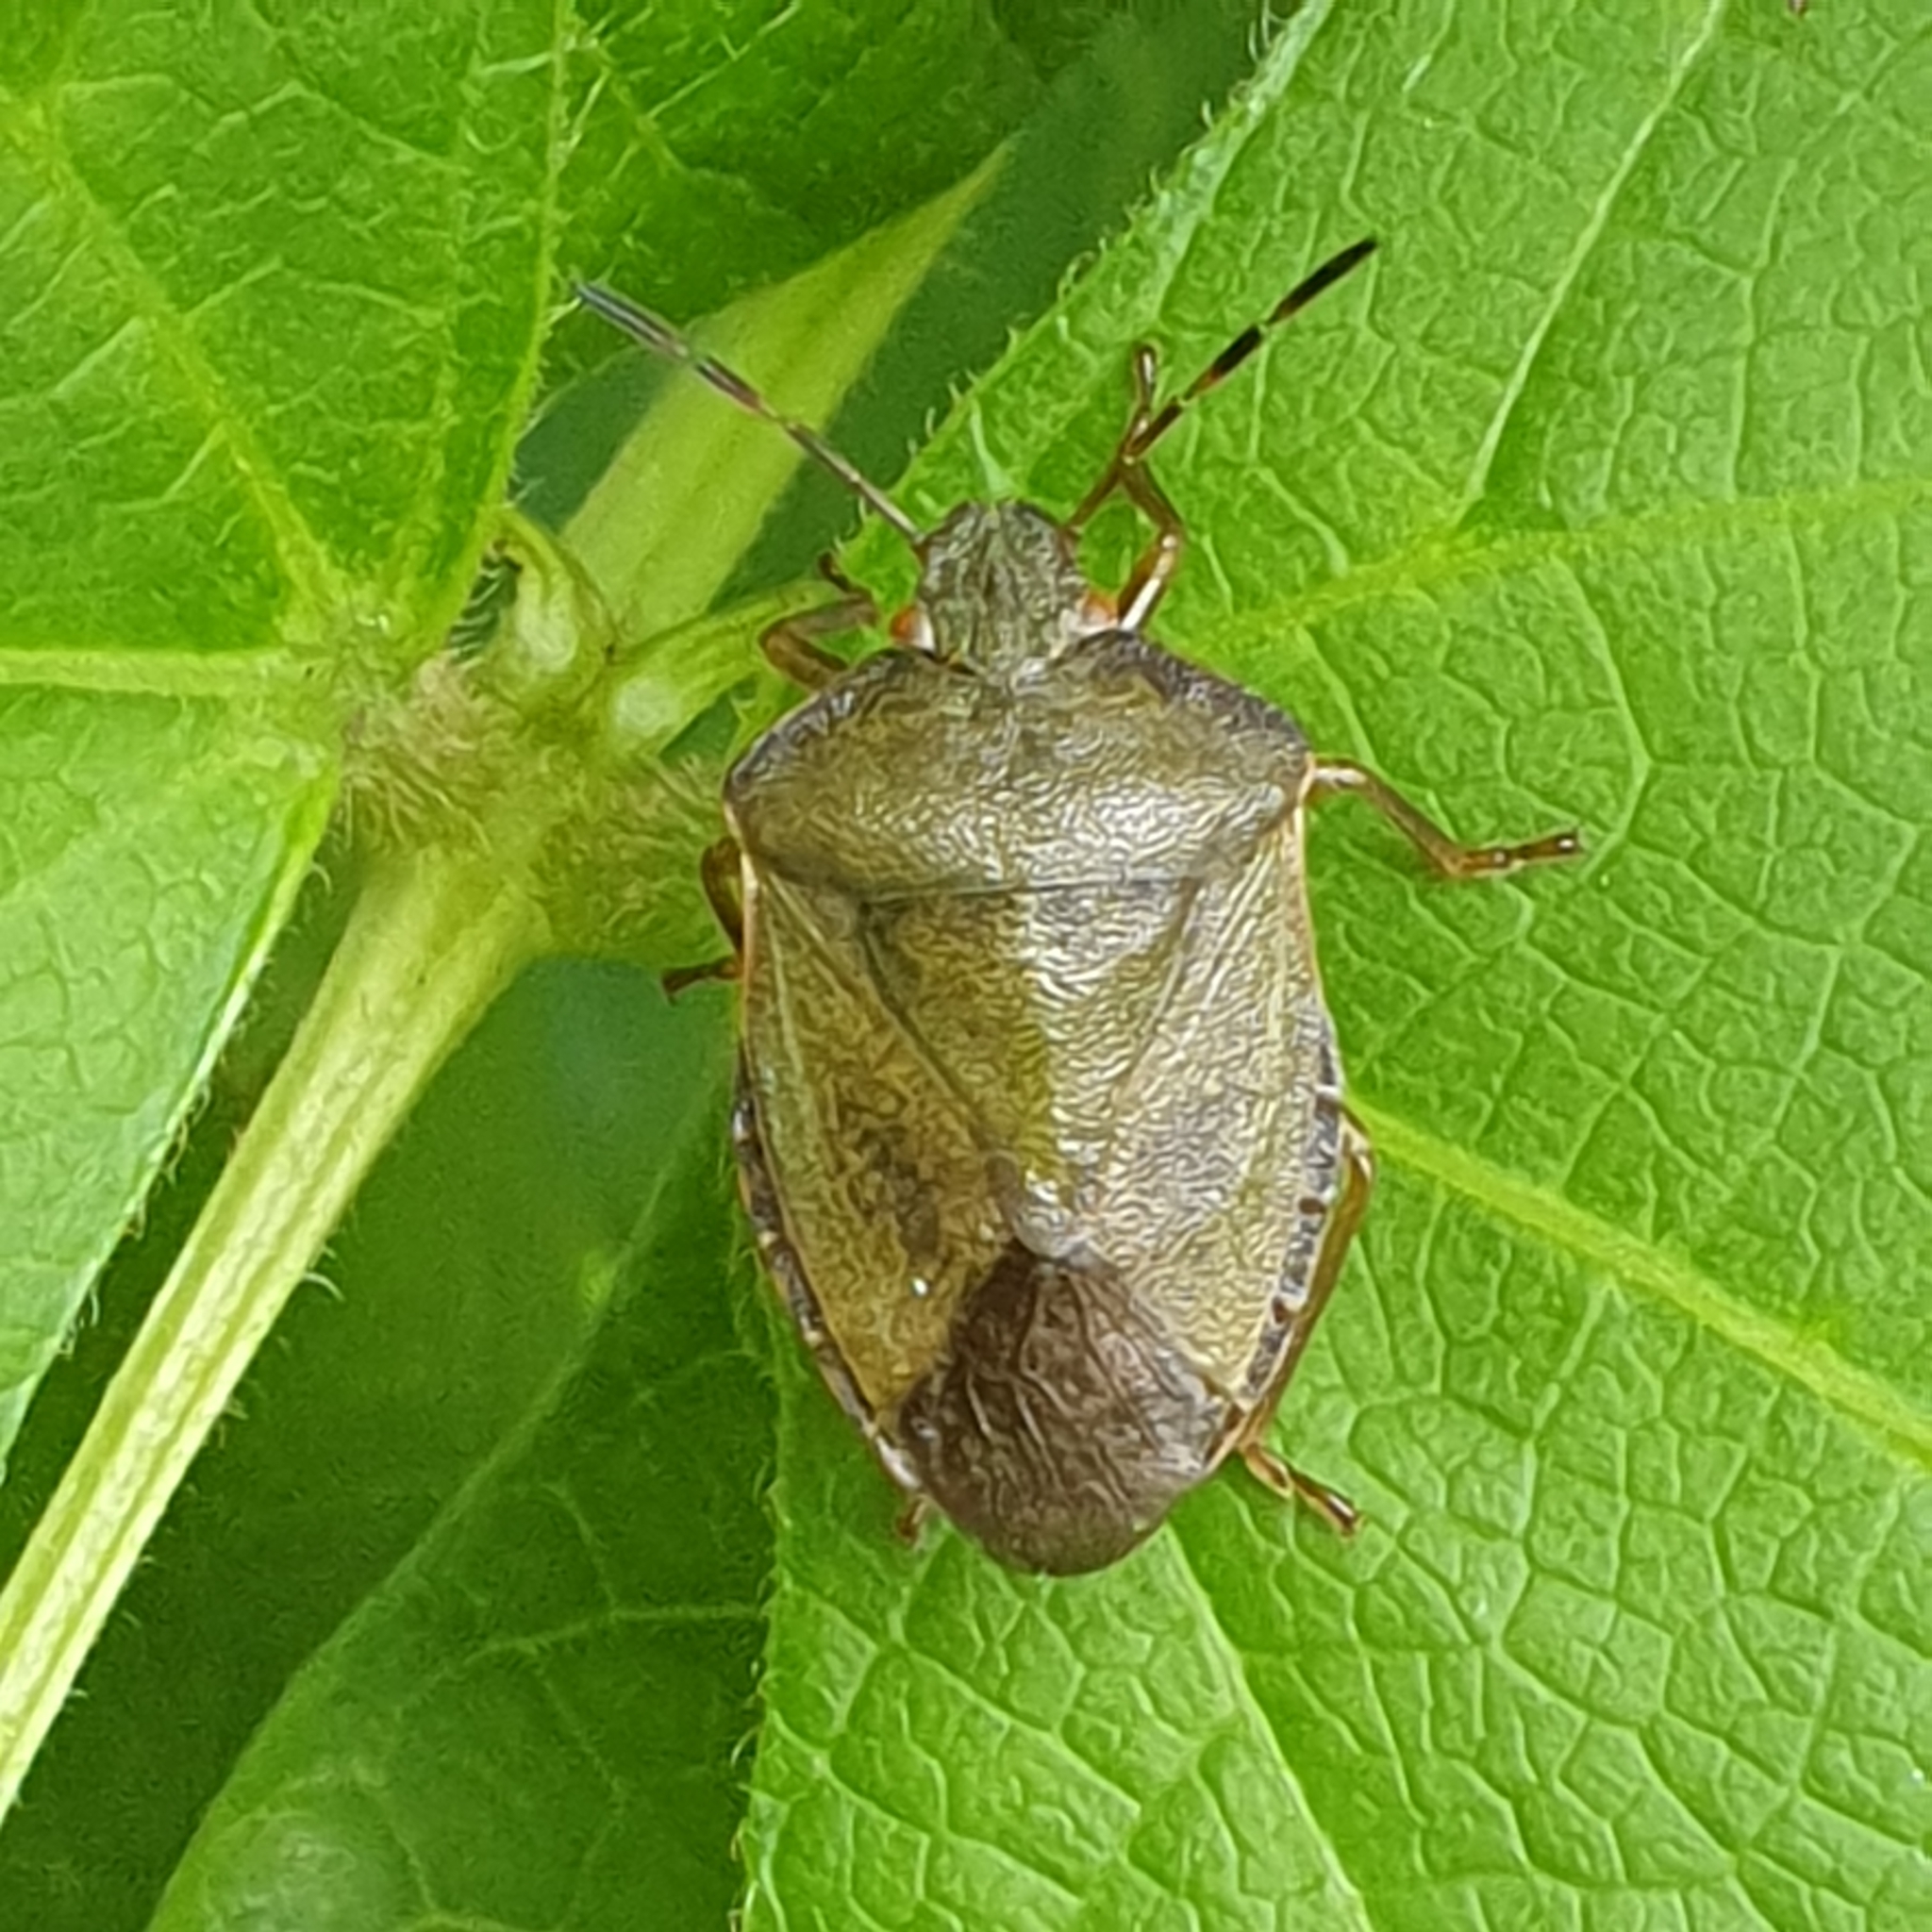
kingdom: Animalia
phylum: Arthropoda
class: Insecta
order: Hemiptera
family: Pentatomidae
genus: Palomena
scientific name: Palomena prasina
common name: Green shieldbug
